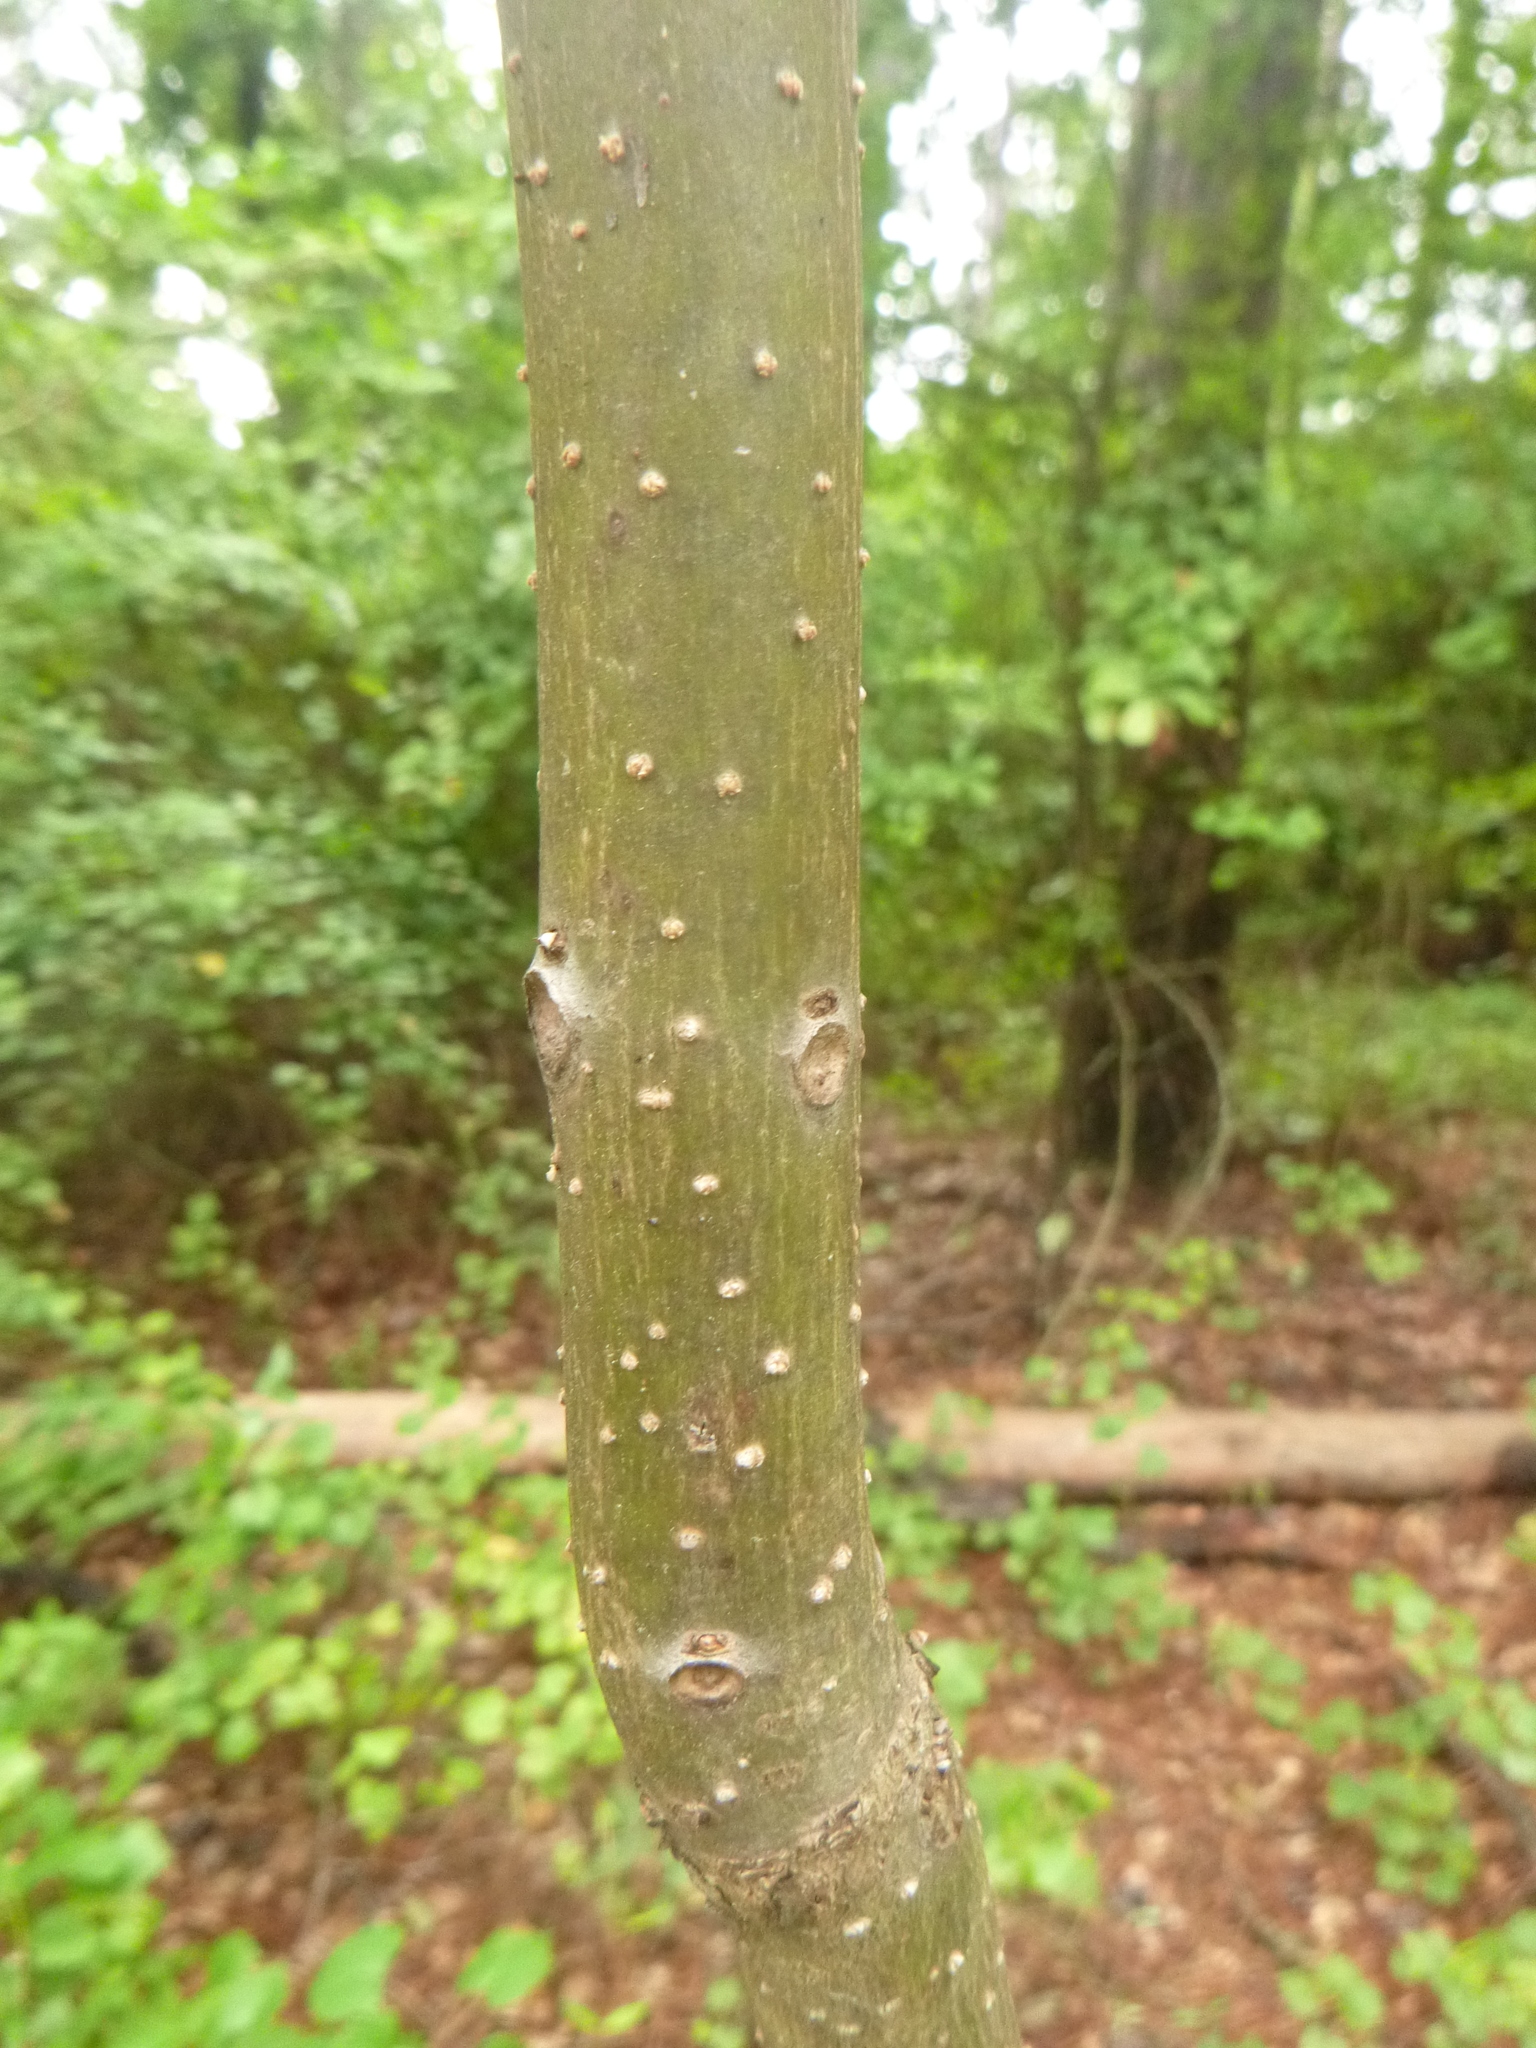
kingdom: Plantae
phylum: Tracheophyta
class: Magnoliopsida
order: Lamiales
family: Bignoniaceae
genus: Catalpa
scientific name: Catalpa bignonioides
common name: Southern catalpa
